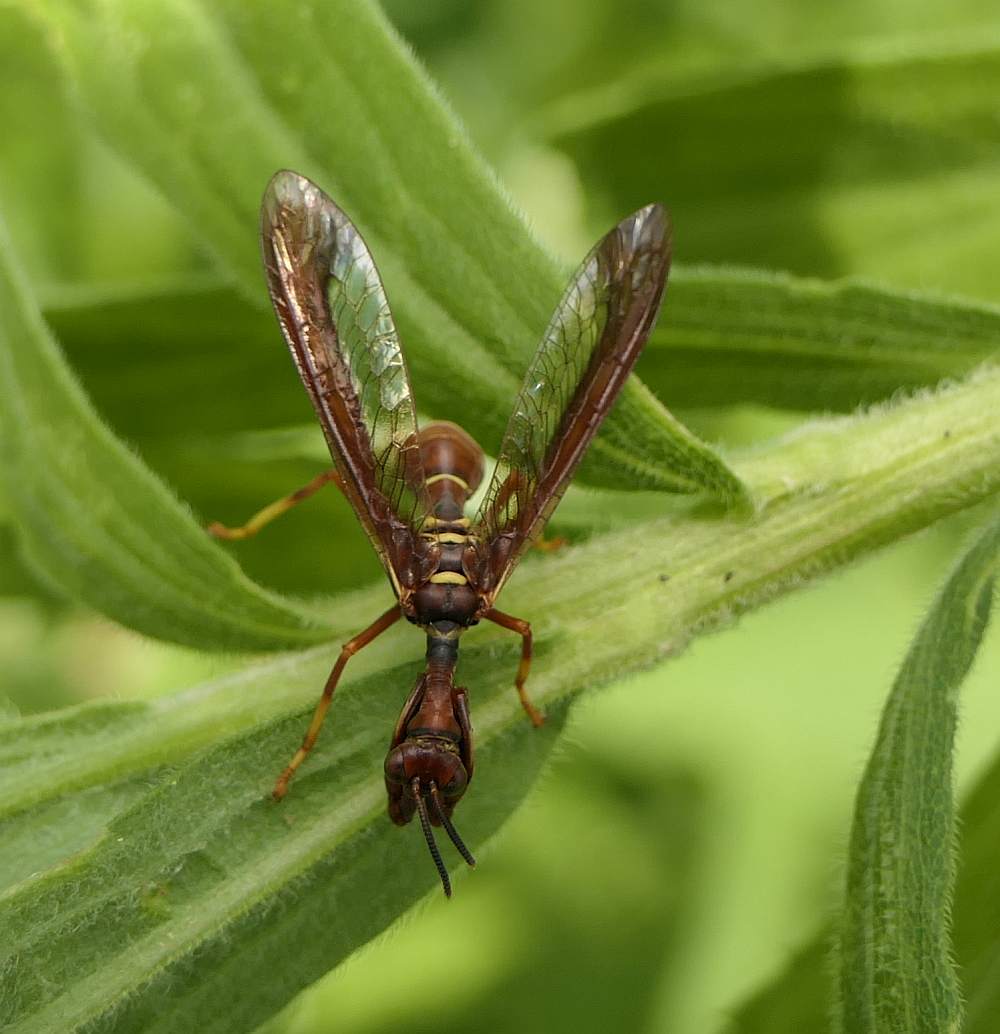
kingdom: Animalia
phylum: Arthropoda
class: Insecta
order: Neuroptera
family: Mantispidae
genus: Climaciella
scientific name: Climaciella brunnea
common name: Brown wasp mantidfly
